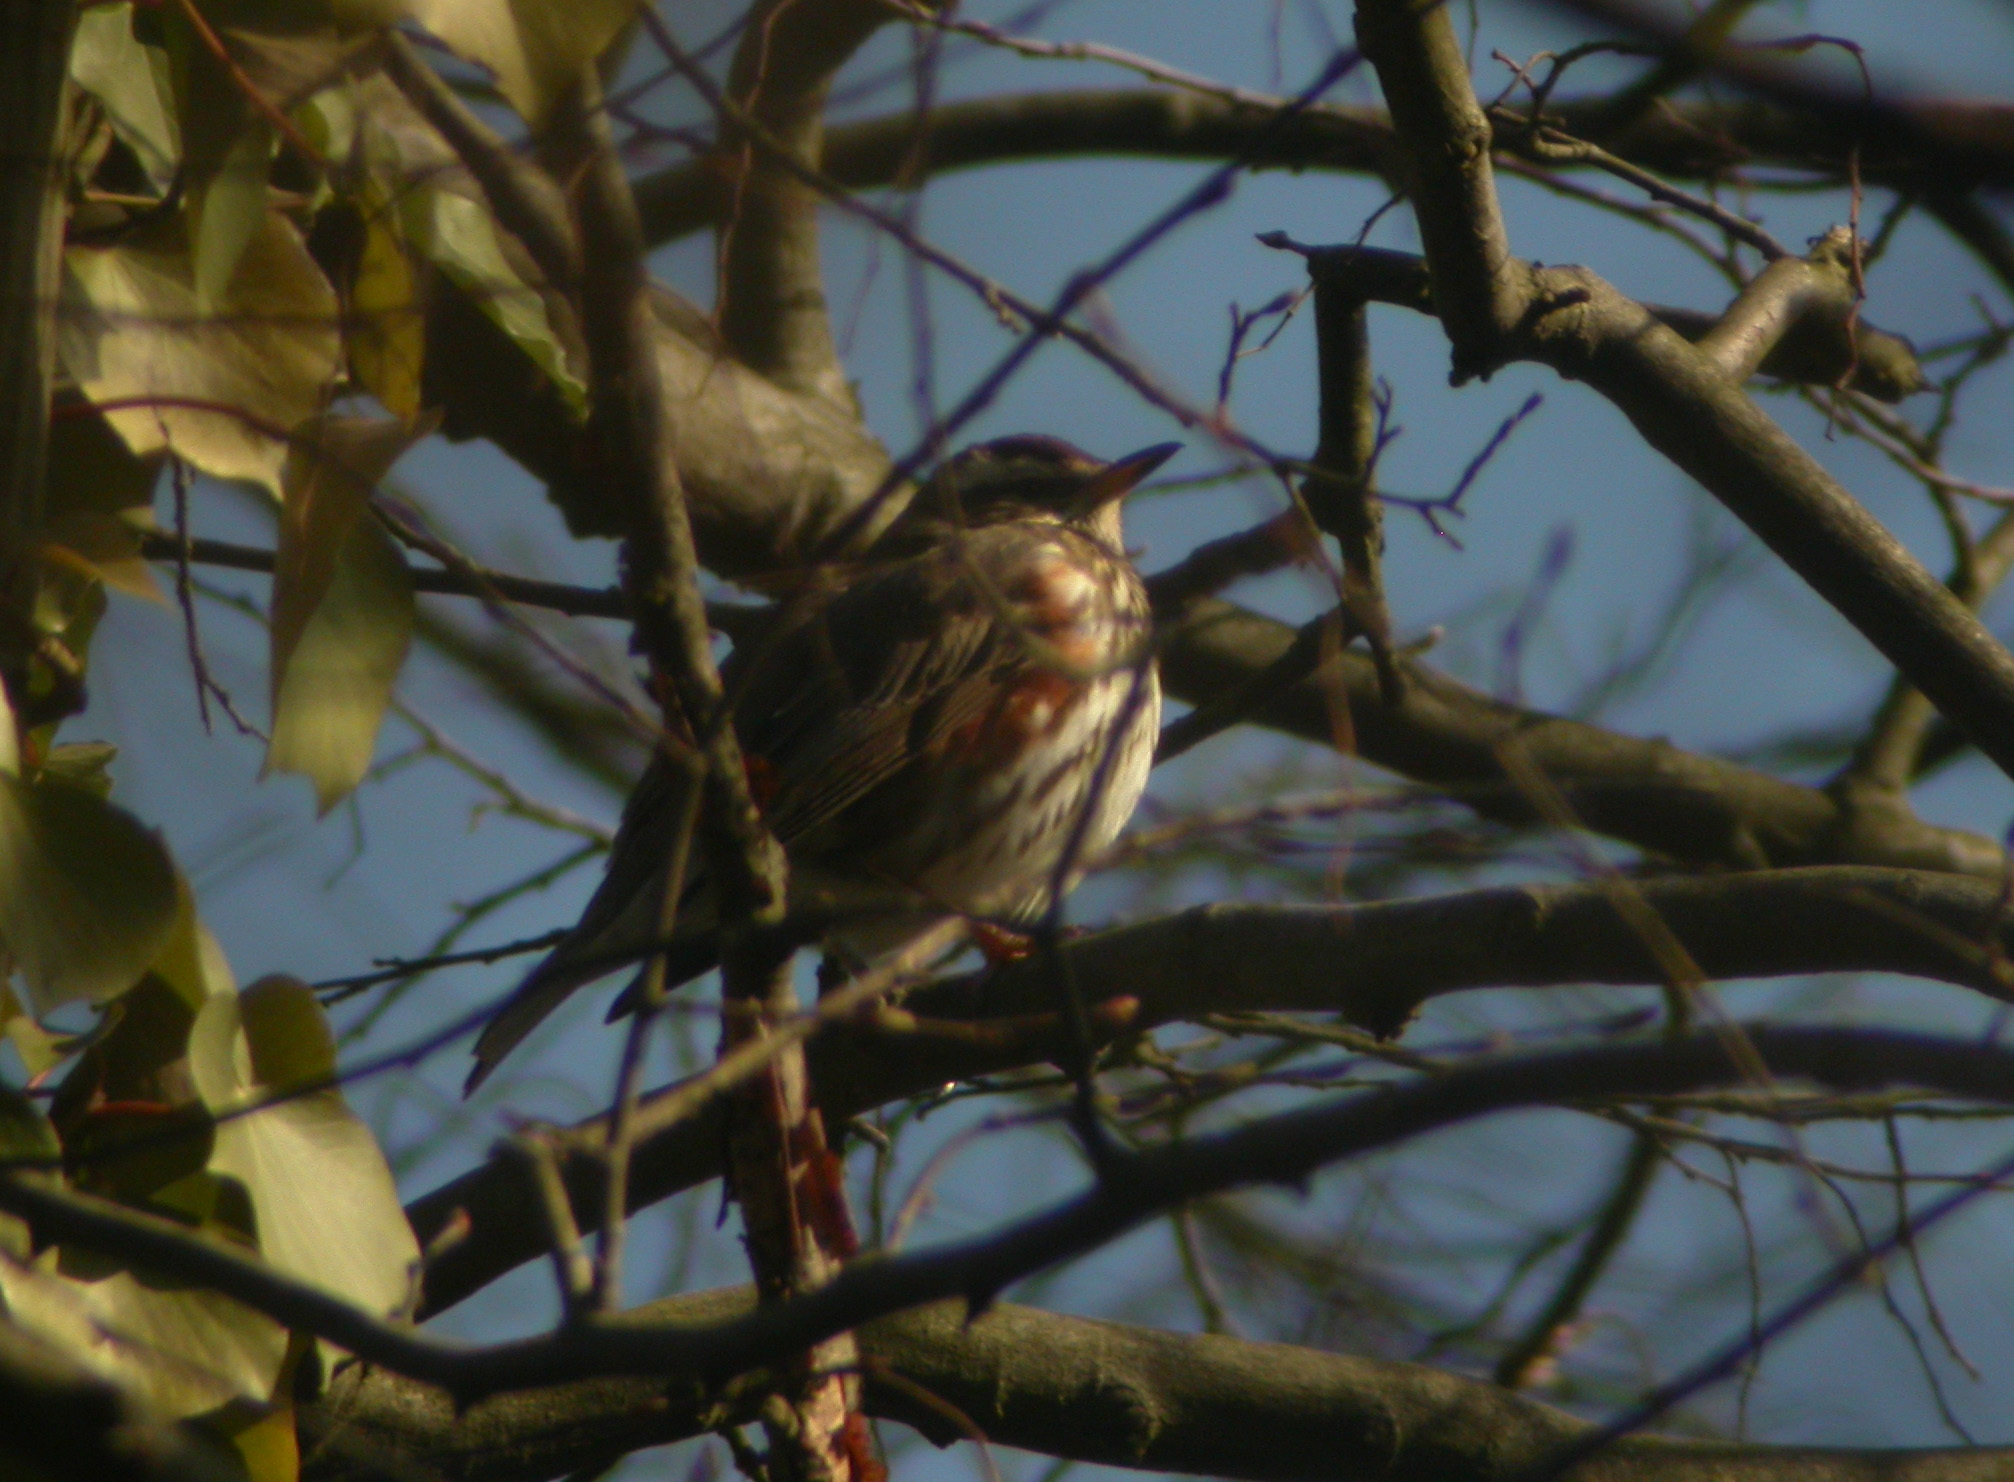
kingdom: Animalia
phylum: Chordata
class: Aves
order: Passeriformes
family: Turdidae
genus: Turdus
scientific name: Turdus iliacus
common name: Redwing
